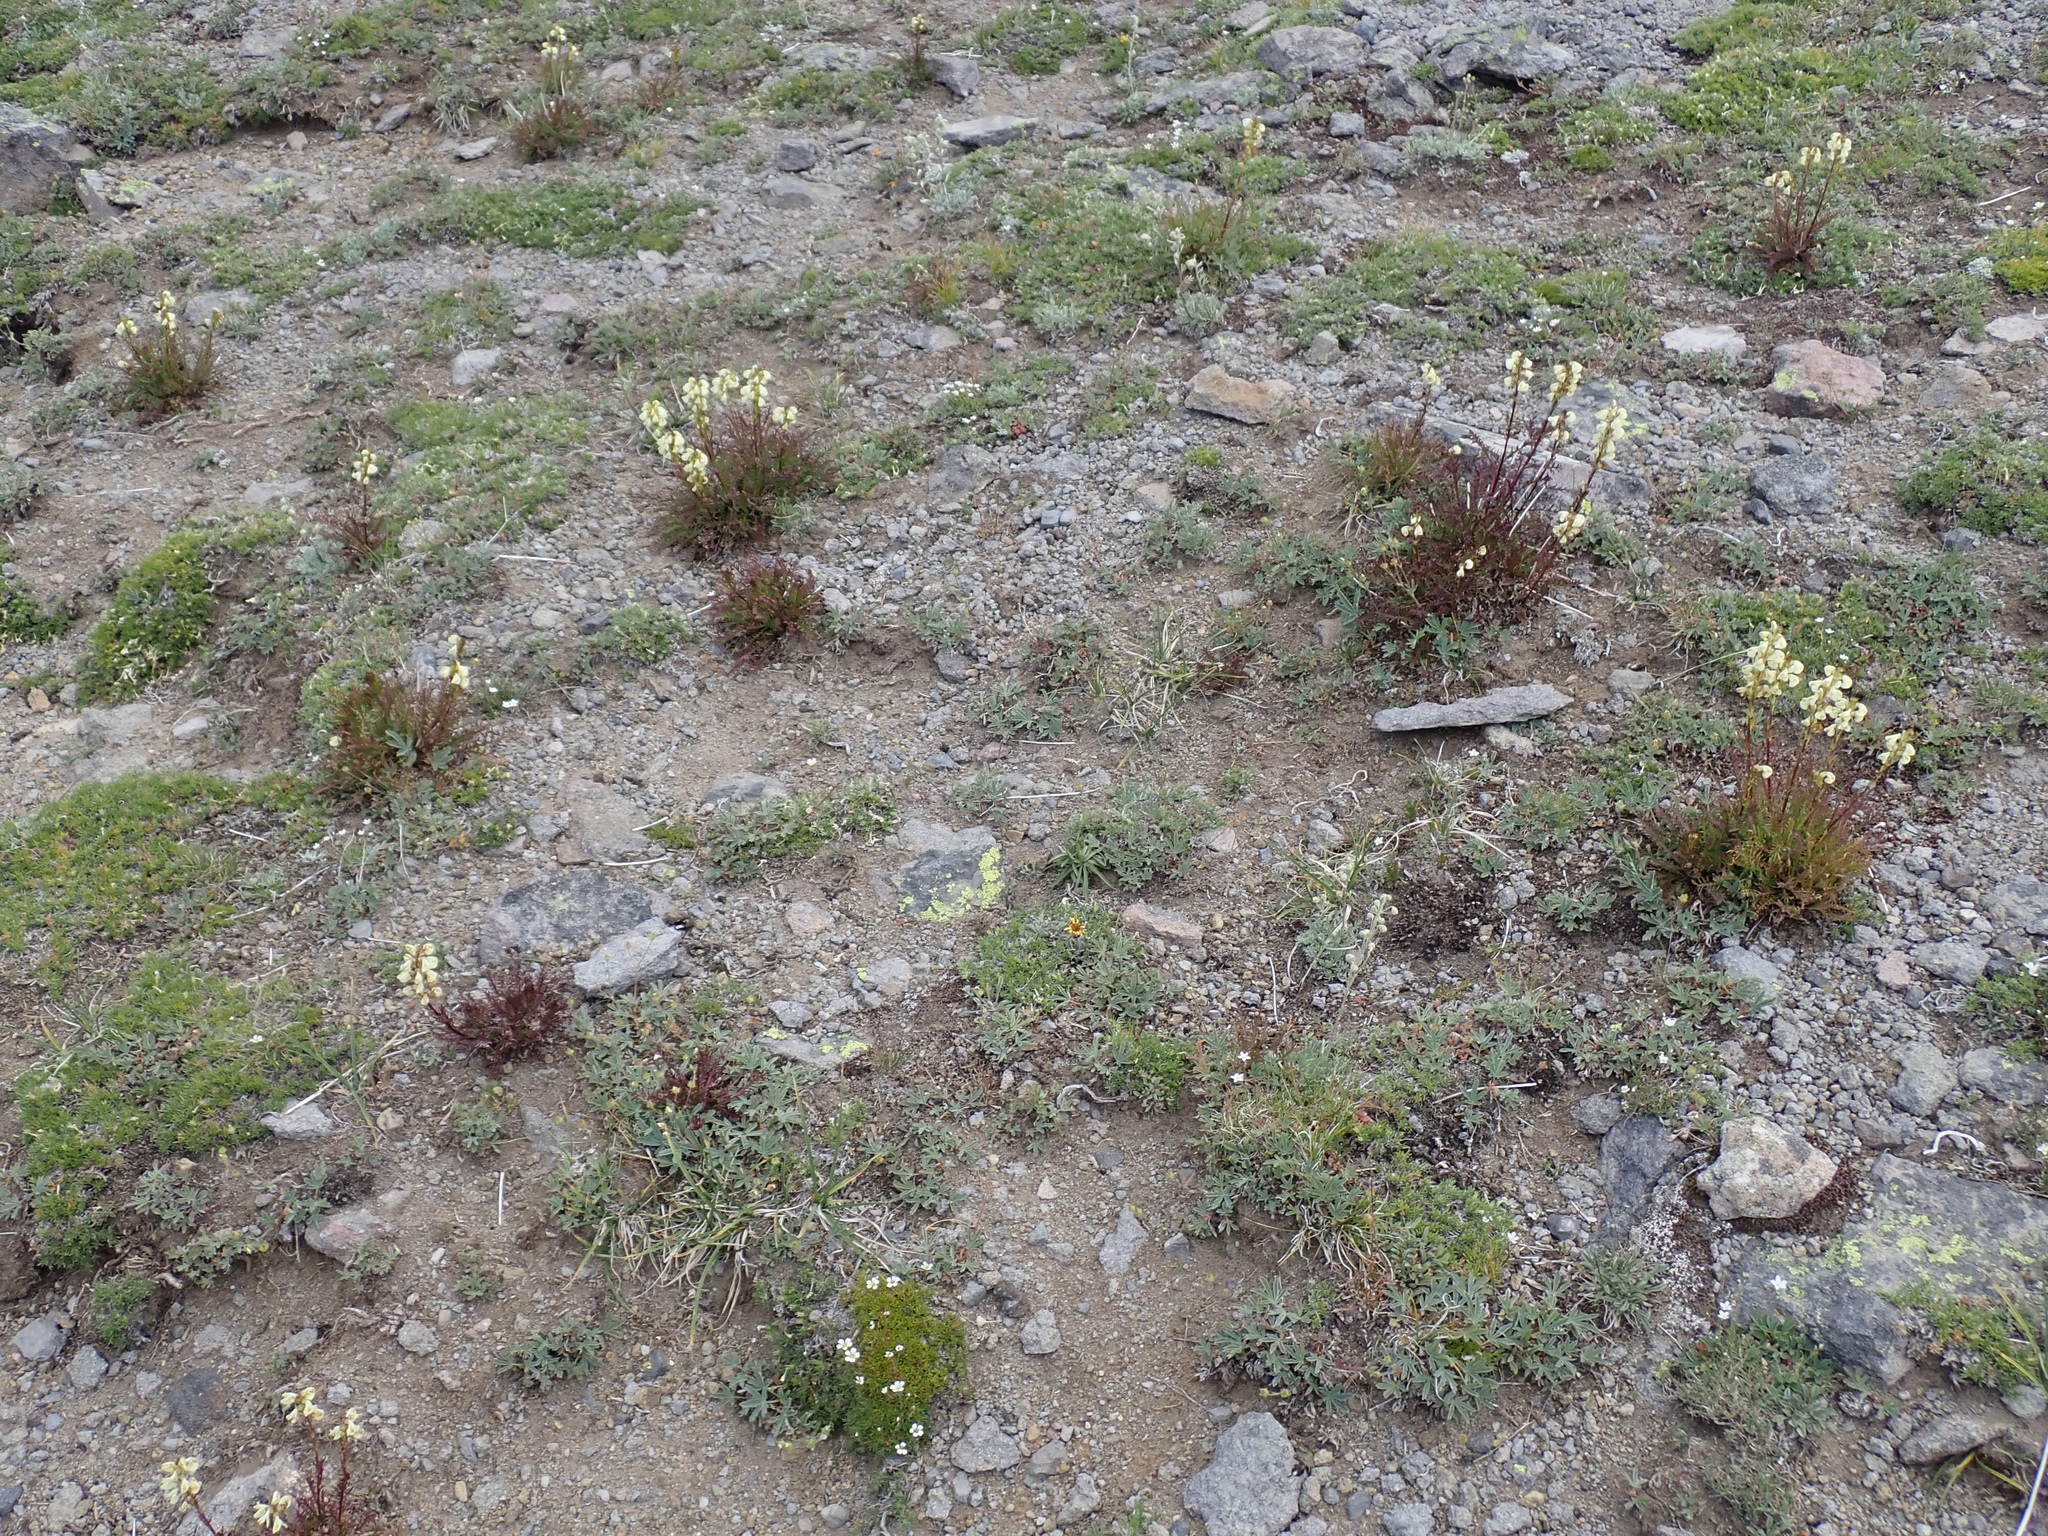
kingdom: Plantae
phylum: Tracheophyta
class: Magnoliopsida
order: Lamiales
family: Orobanchaceae
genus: Pedicularis
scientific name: Pedicularis contorta
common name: Coiled lousewort
